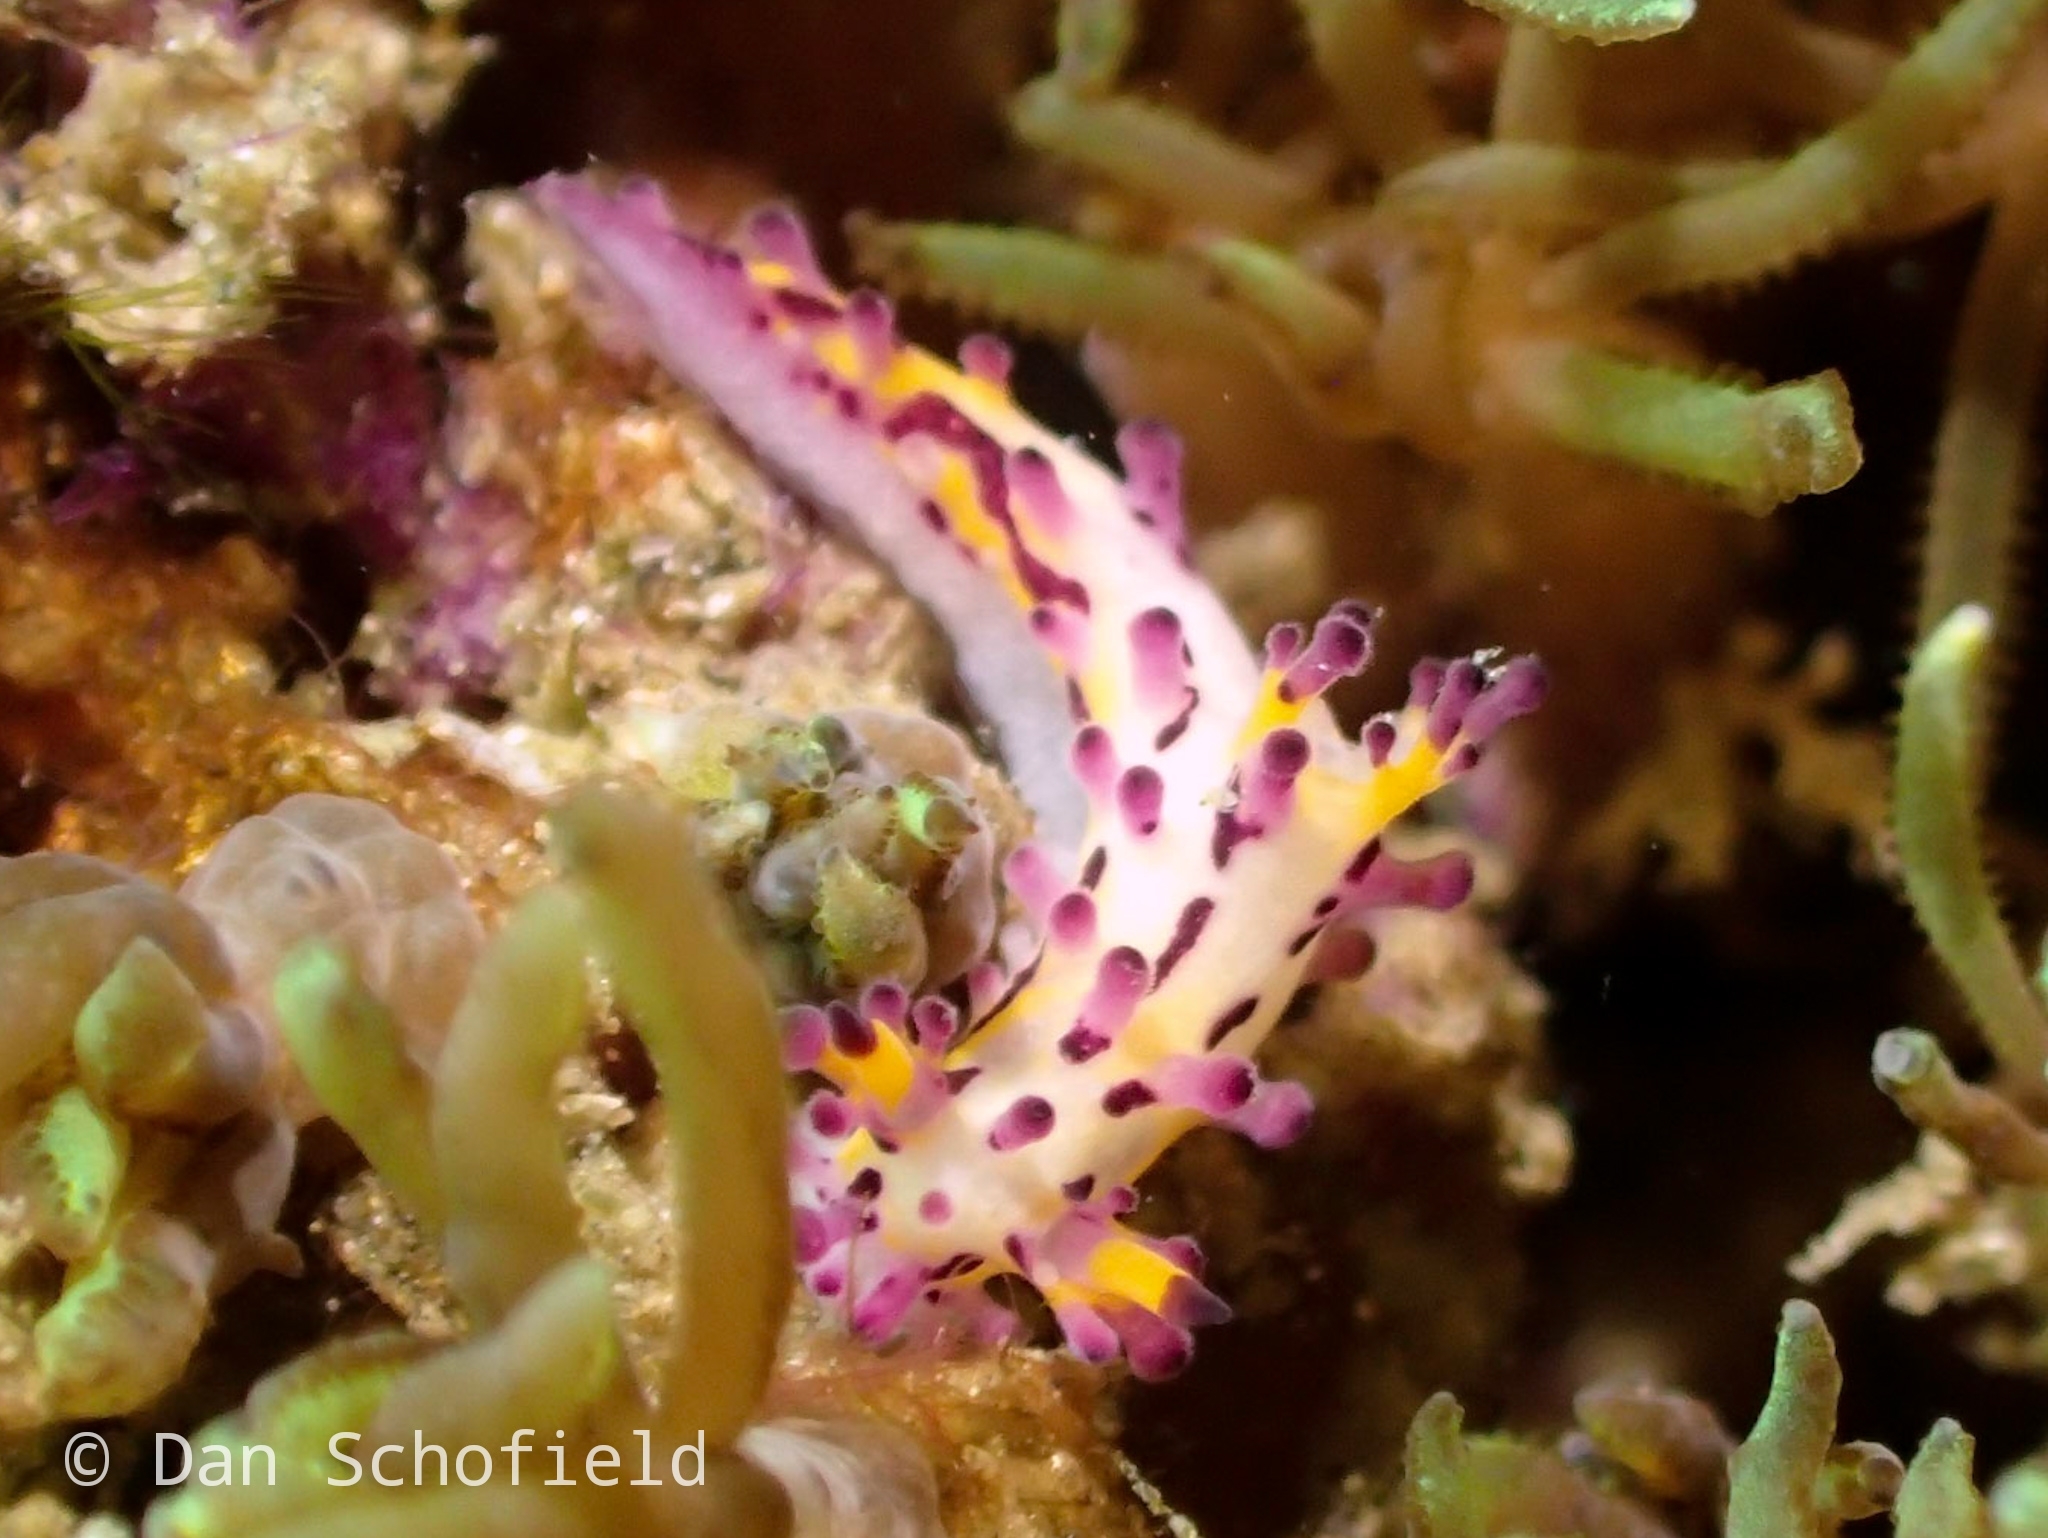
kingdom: Animalia
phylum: Mollusca
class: Gastropoda
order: Nudibranchia
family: Aegiridae
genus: Aegires
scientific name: Aegires villosus
